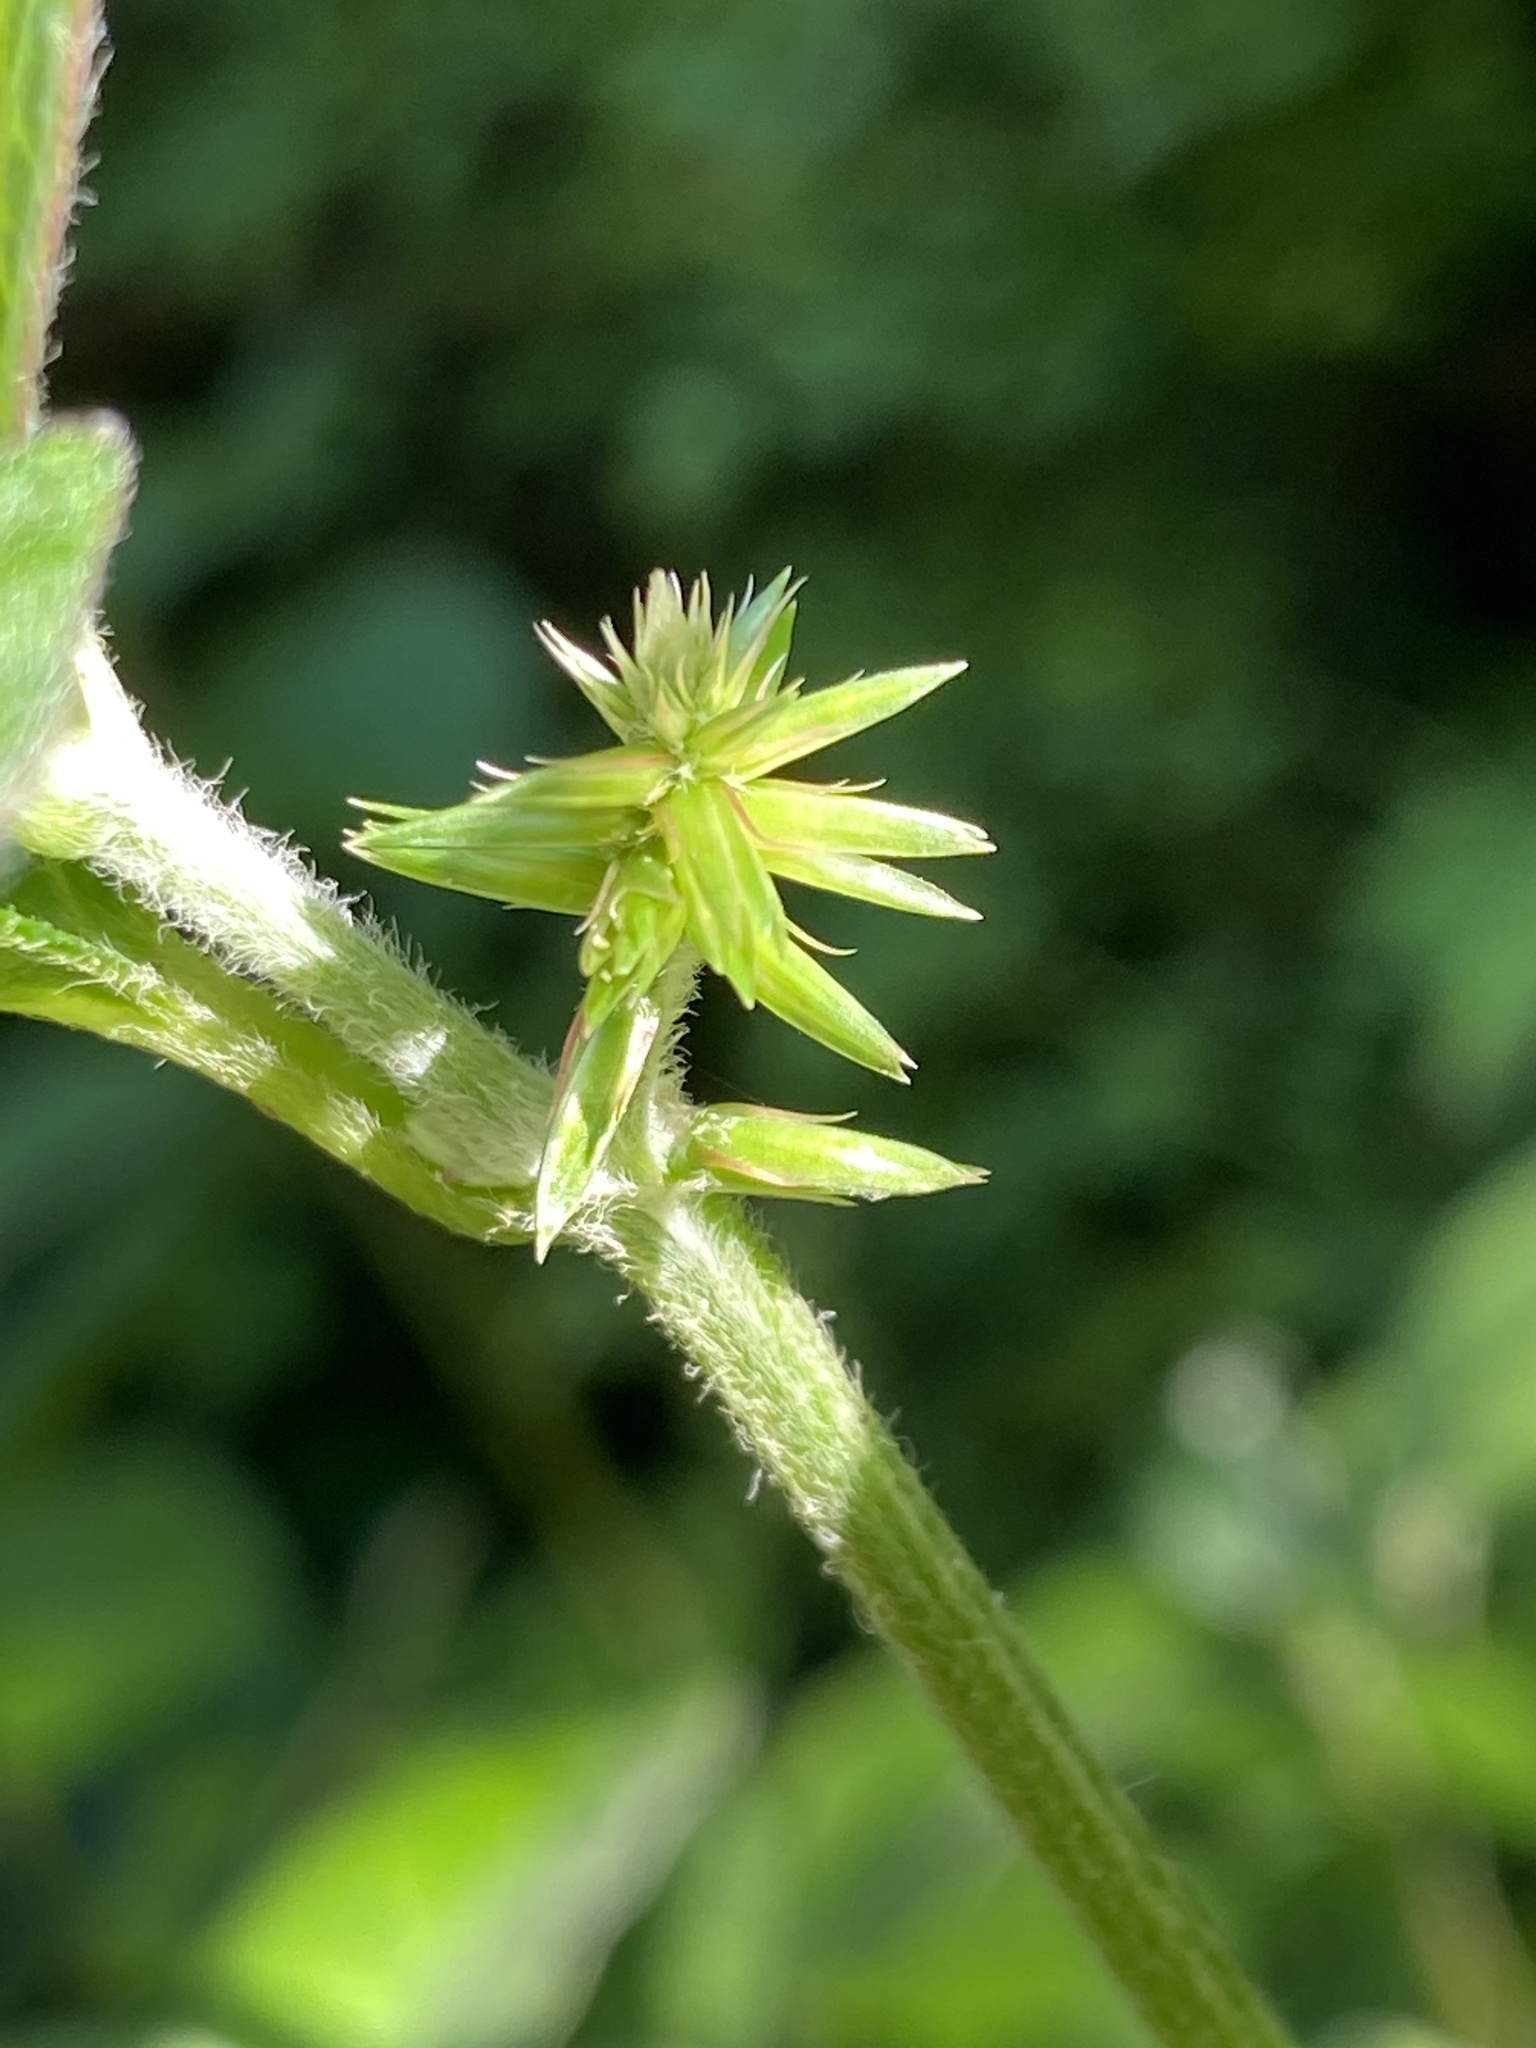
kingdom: Plantae
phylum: Tracheophyta
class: Magnoliopsida
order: Caryophyllales
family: Amaranthaceae
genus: Achyranthes
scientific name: Achyranthes bidentata
